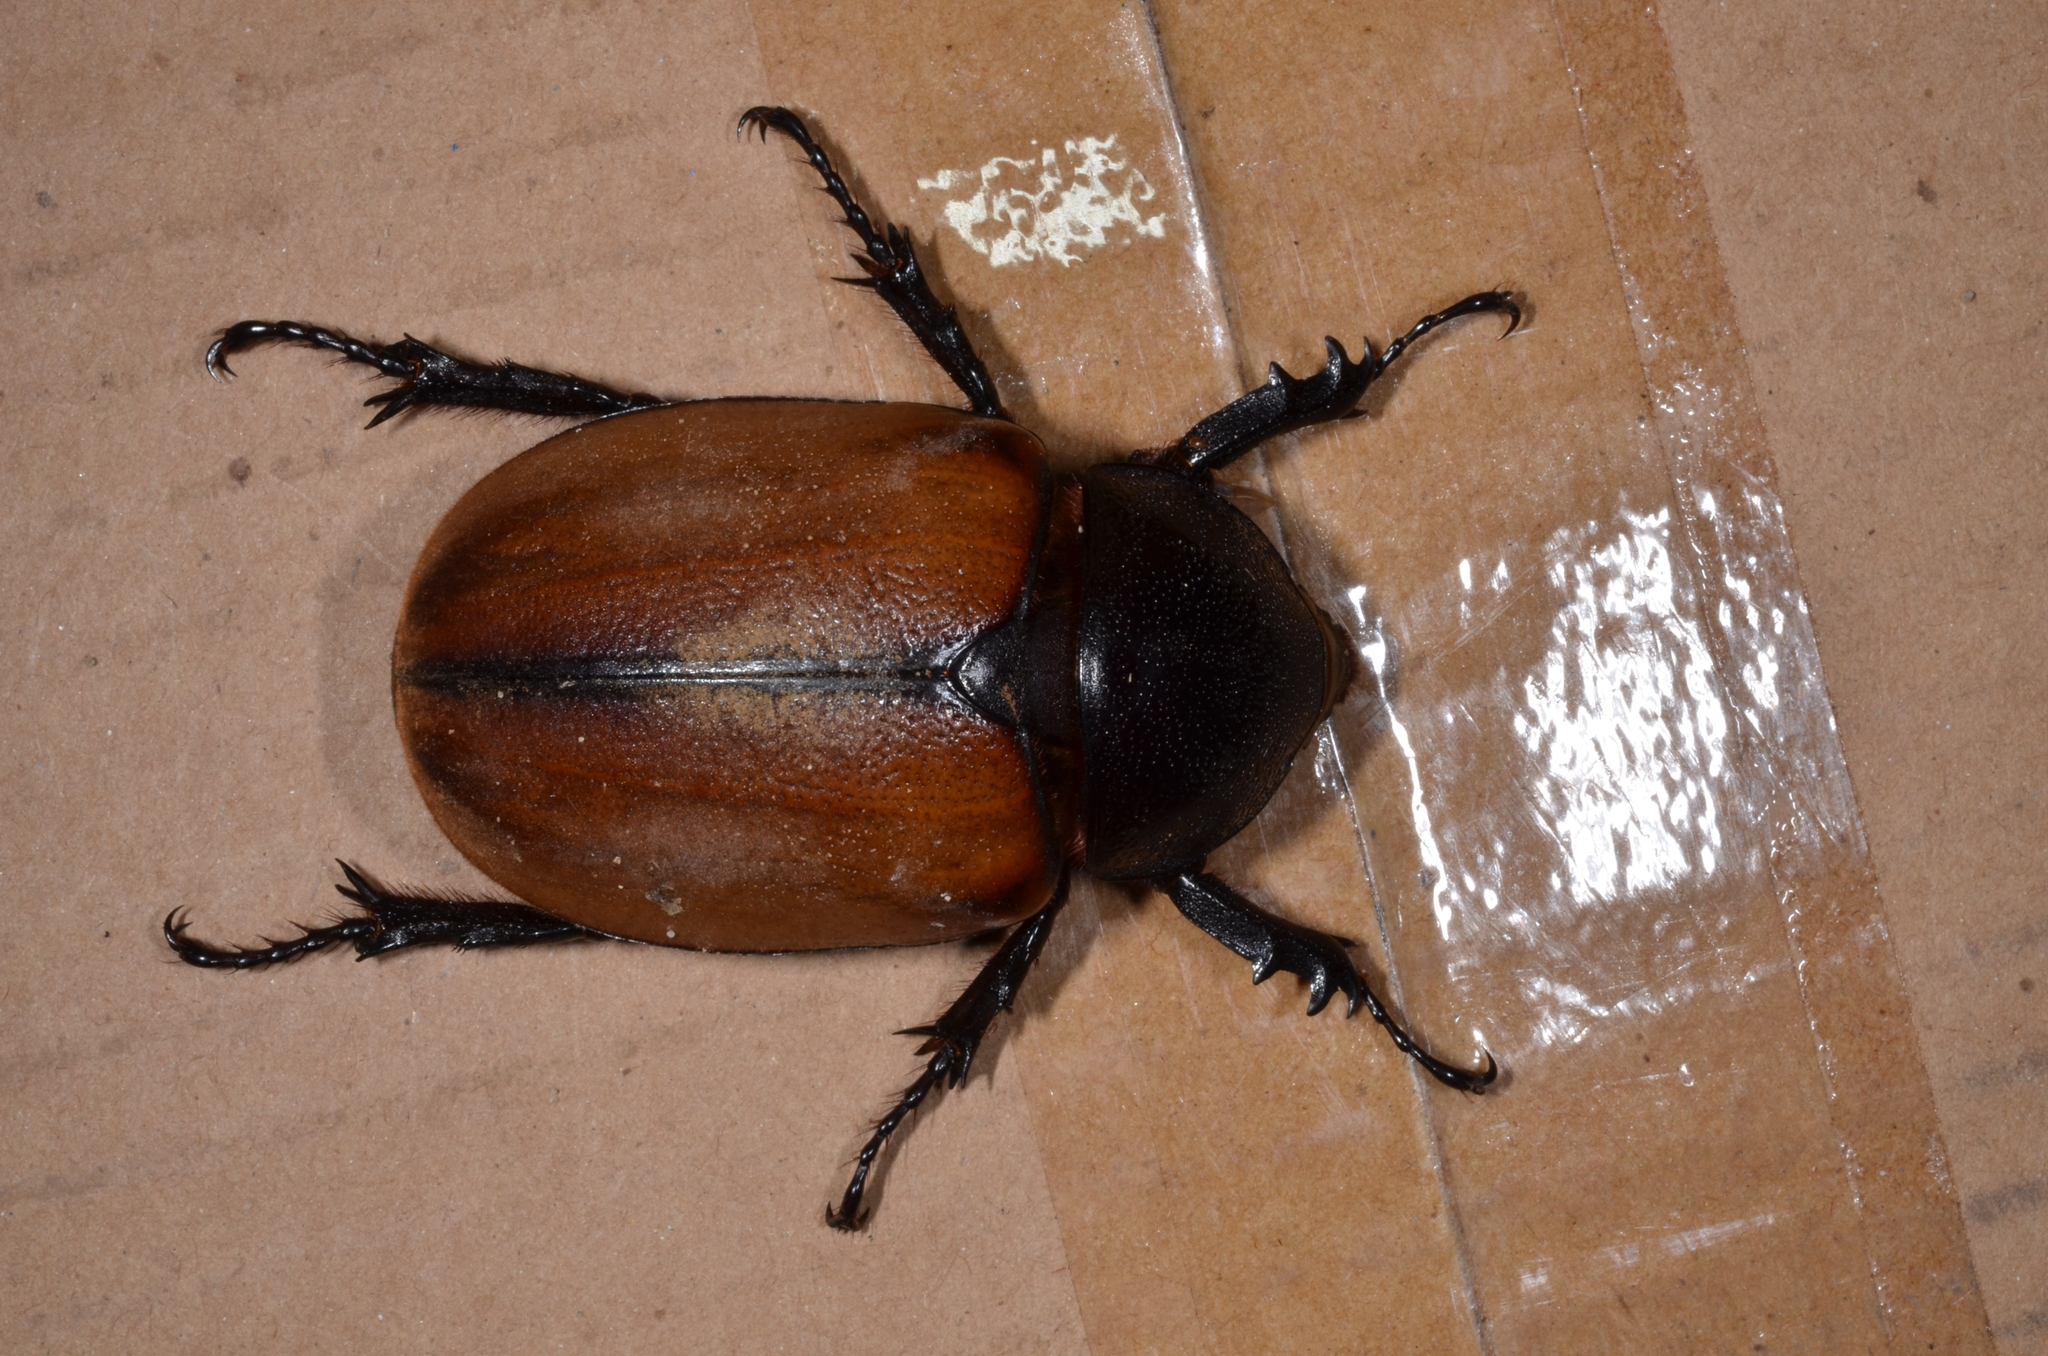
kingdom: Animalia
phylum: Arthropoda
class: Insecta
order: Coleoptera
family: Scarabaeidae
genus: Eupatorus
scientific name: Eupatorus gracilicornis
